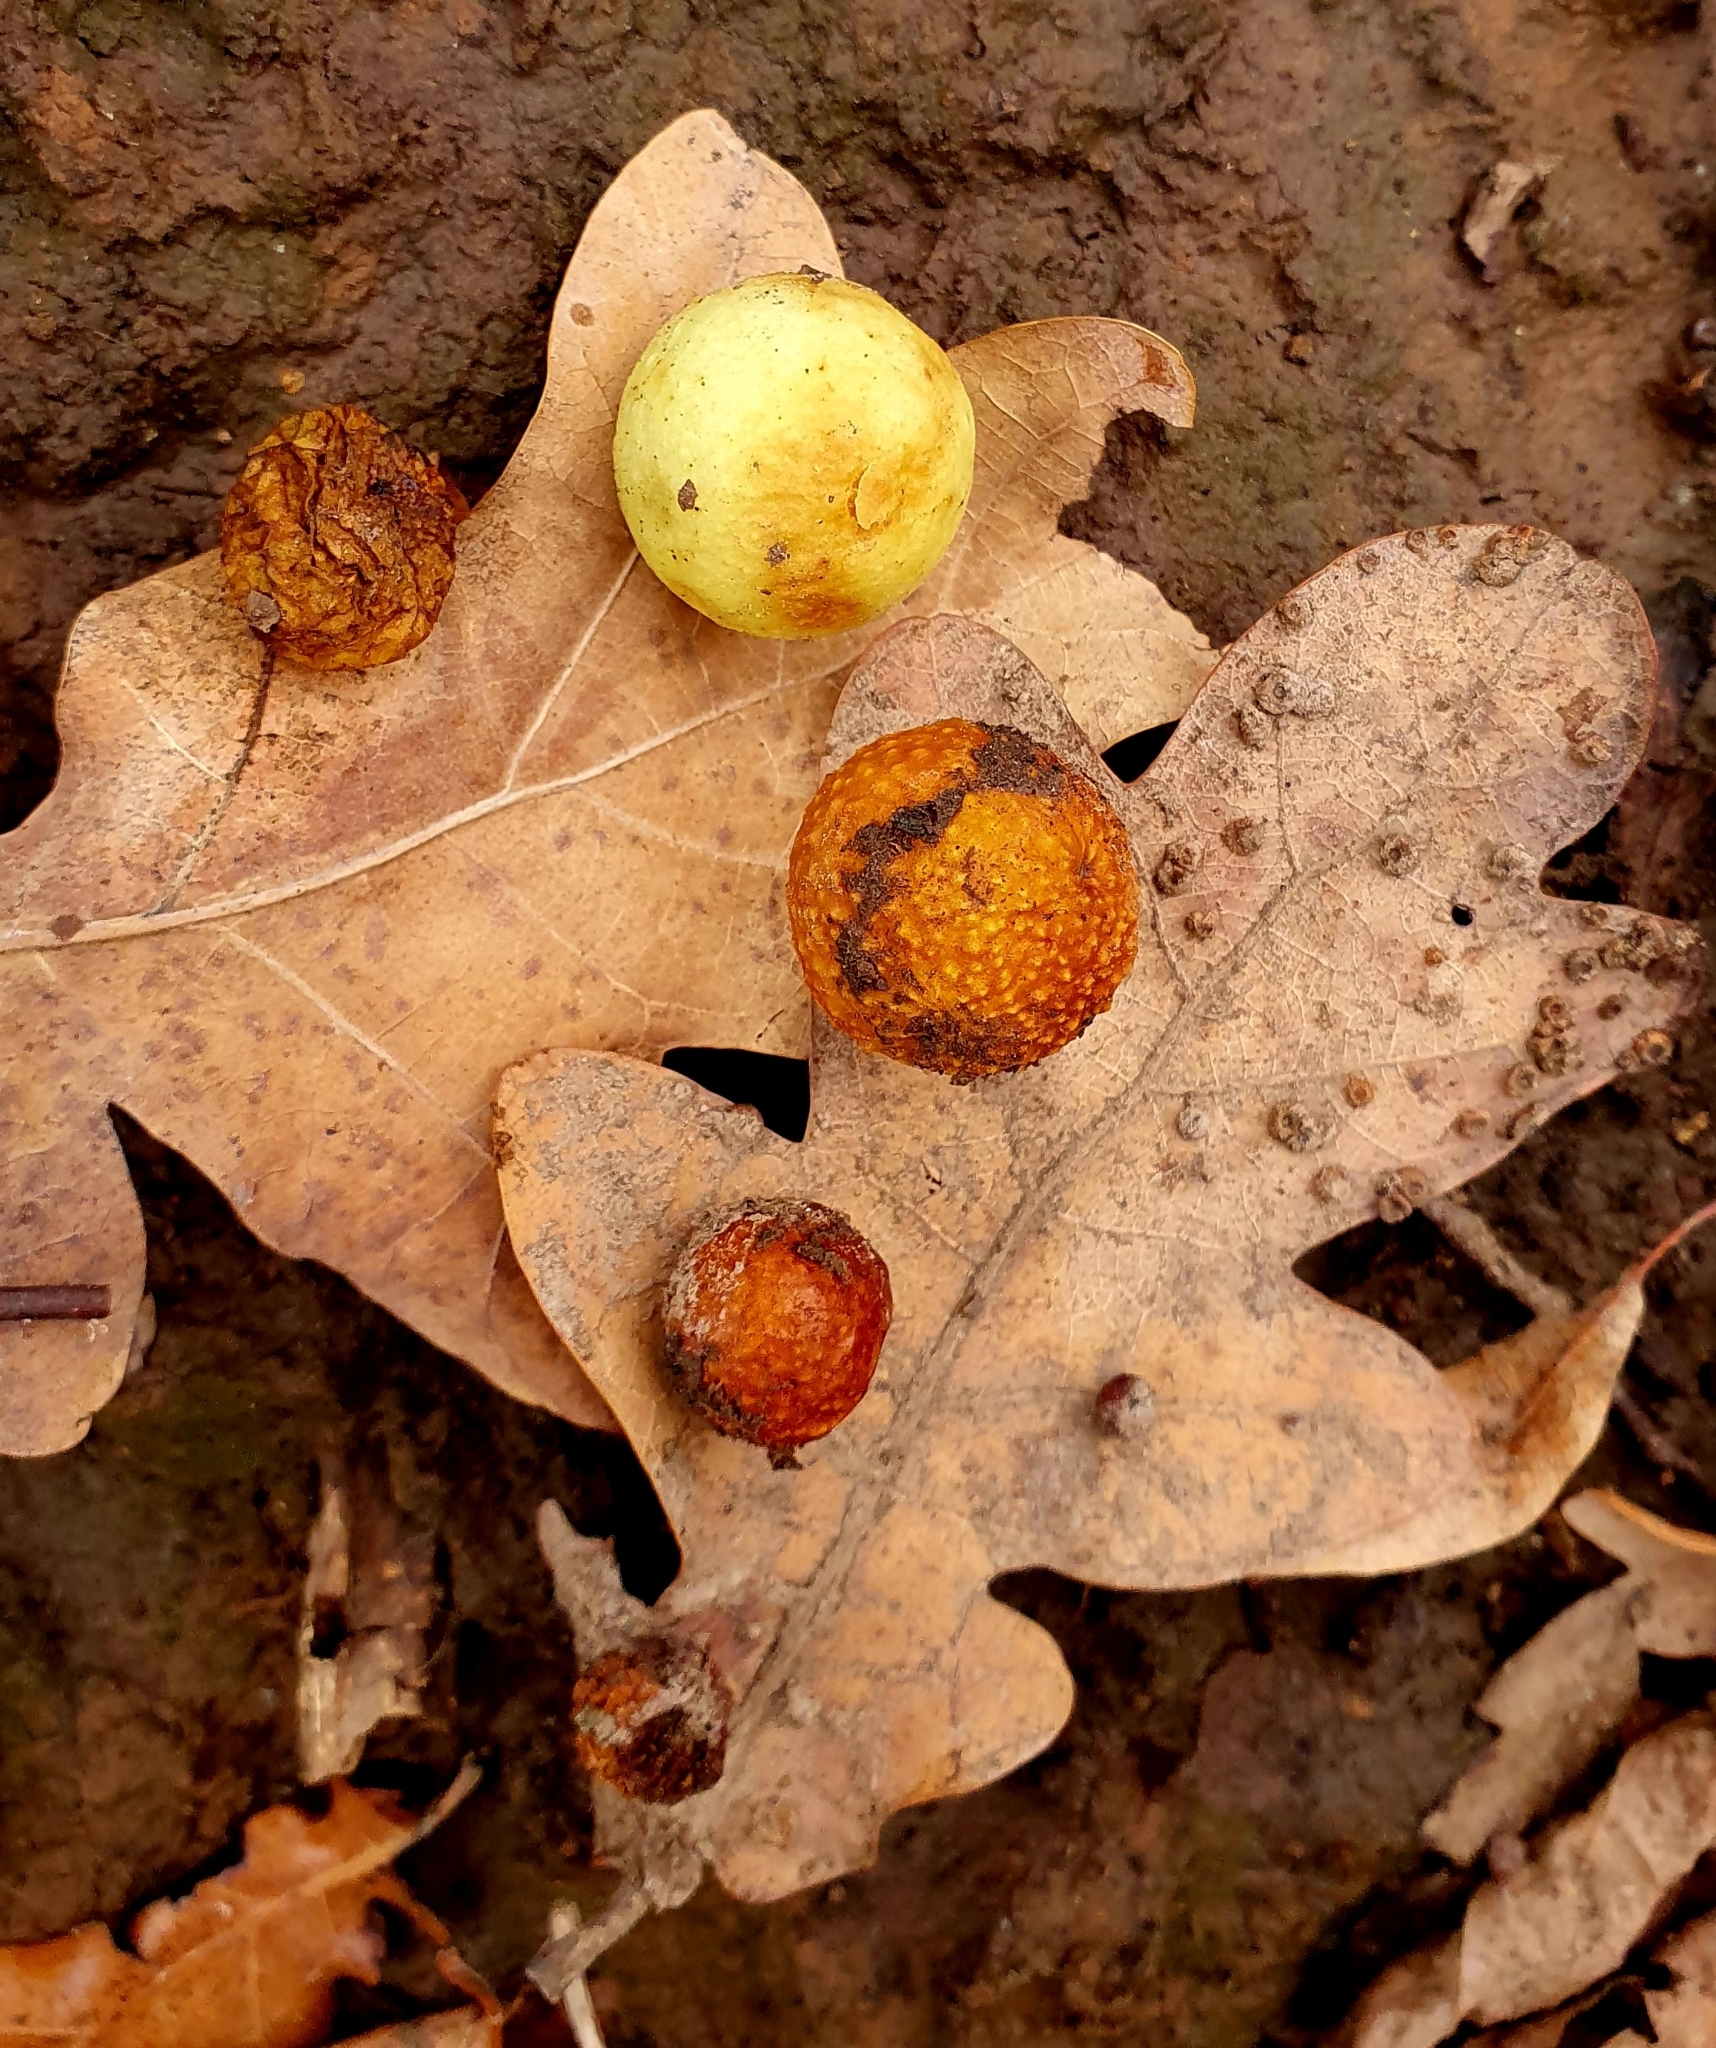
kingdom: Animalia
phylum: Arthropoda
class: Insecta
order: Hymenoptera
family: Cynipidae
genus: Cynips
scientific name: Cynips quercusfolii
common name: Cherry gall
